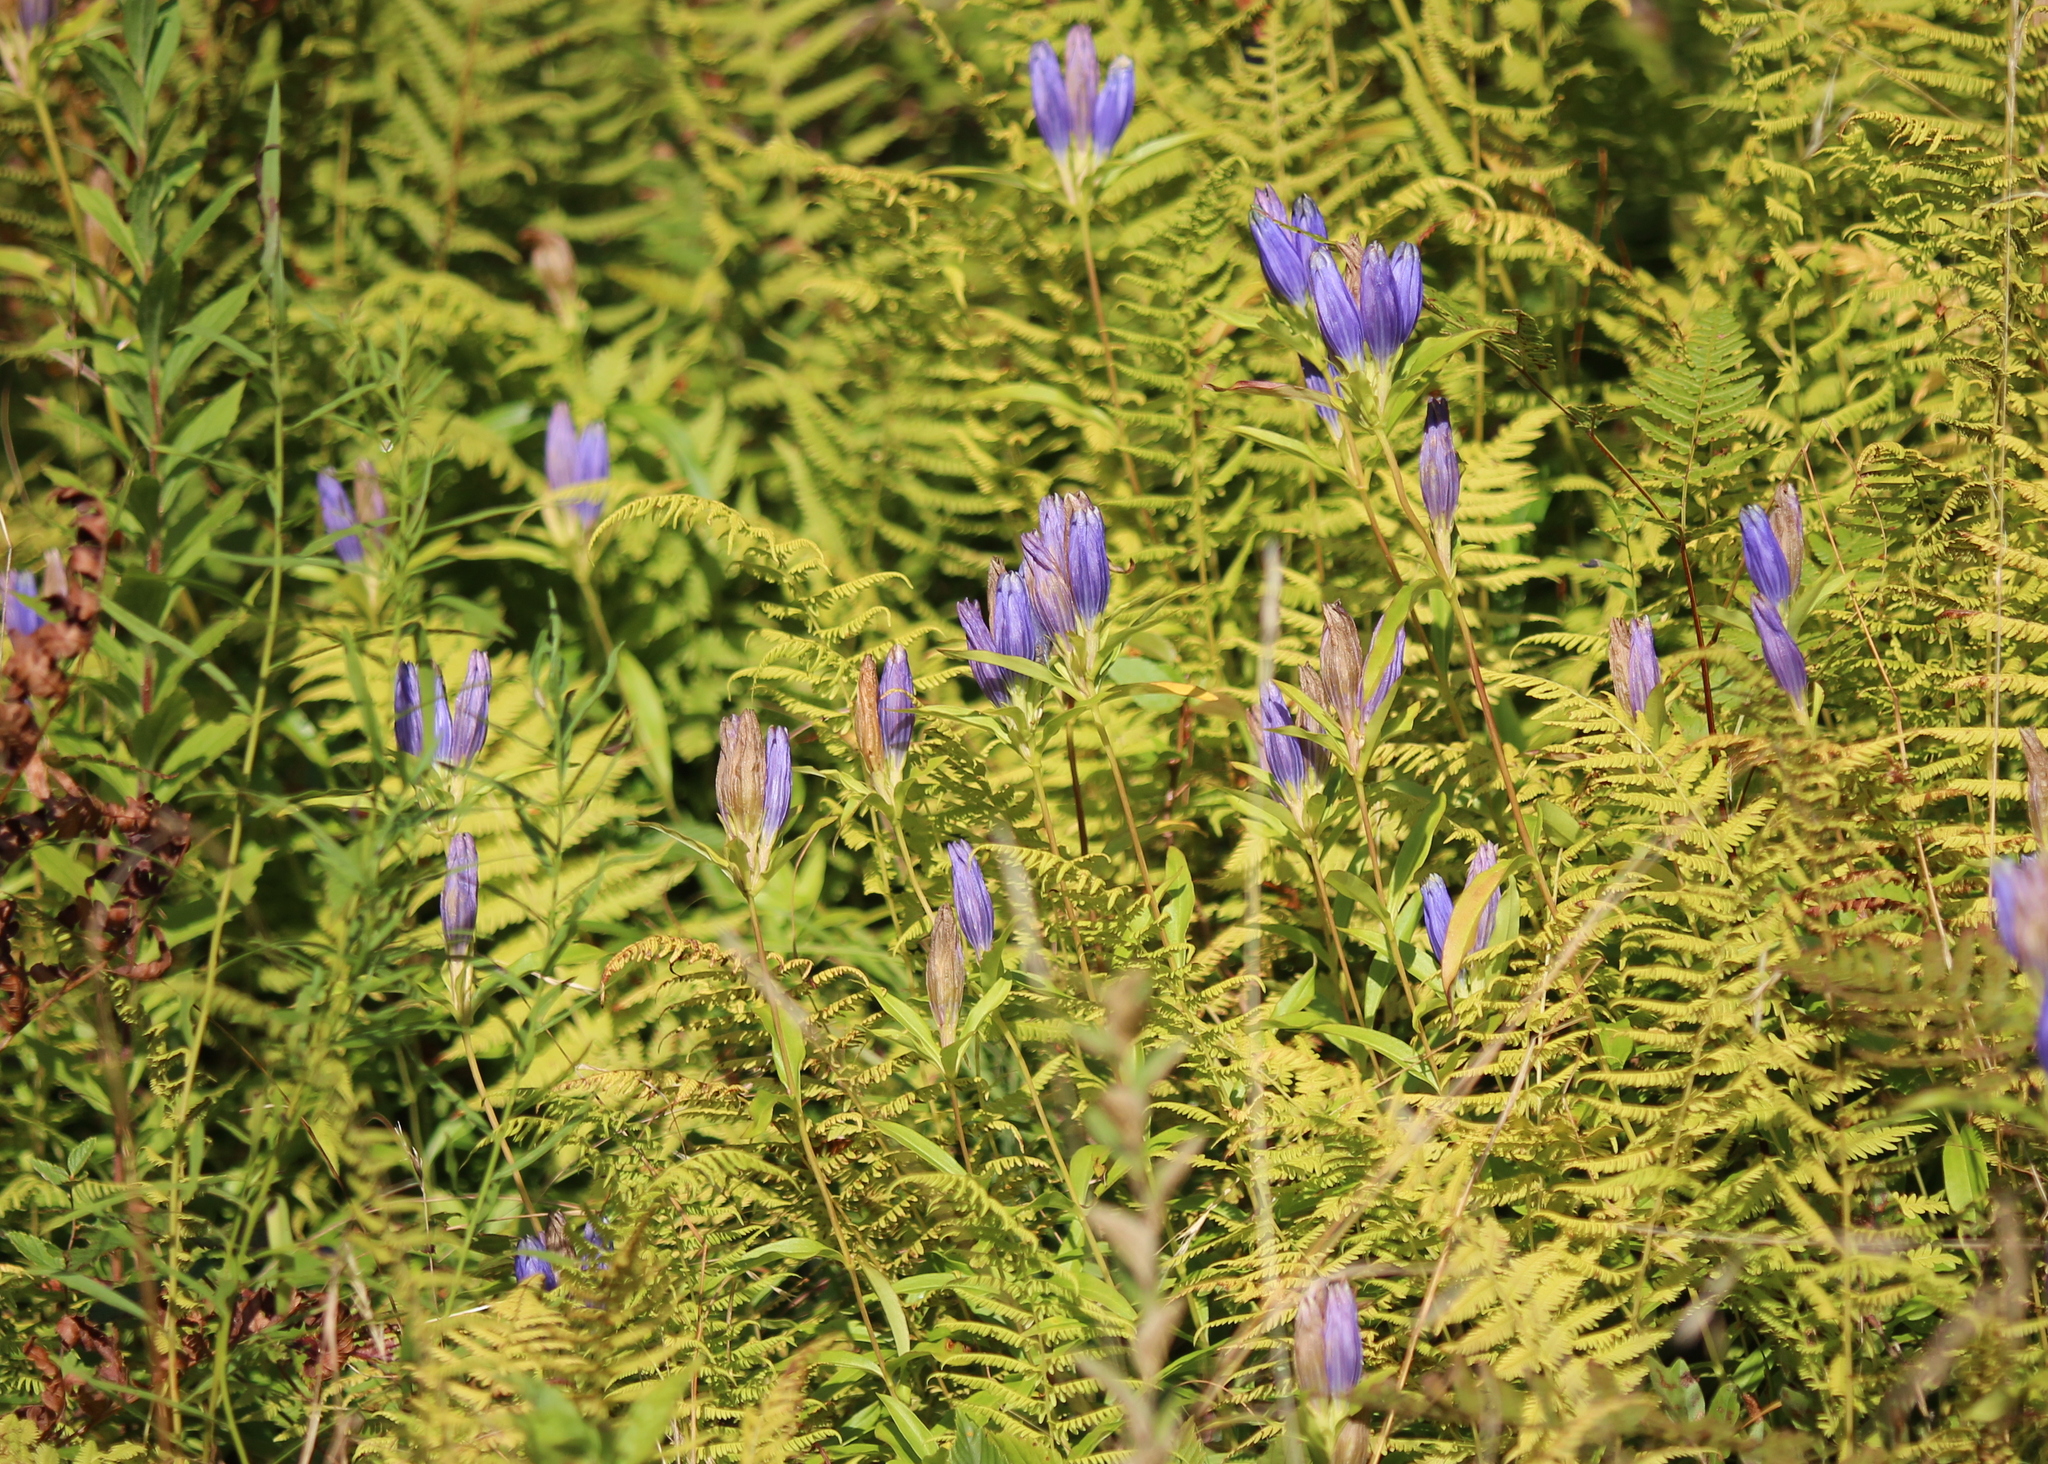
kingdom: Plantae
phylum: Tracheophyta
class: Magnoliopsida
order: Gentianales
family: Gentianaceae
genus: Gentiana
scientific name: Gentiana linearis
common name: Bastard gentian
